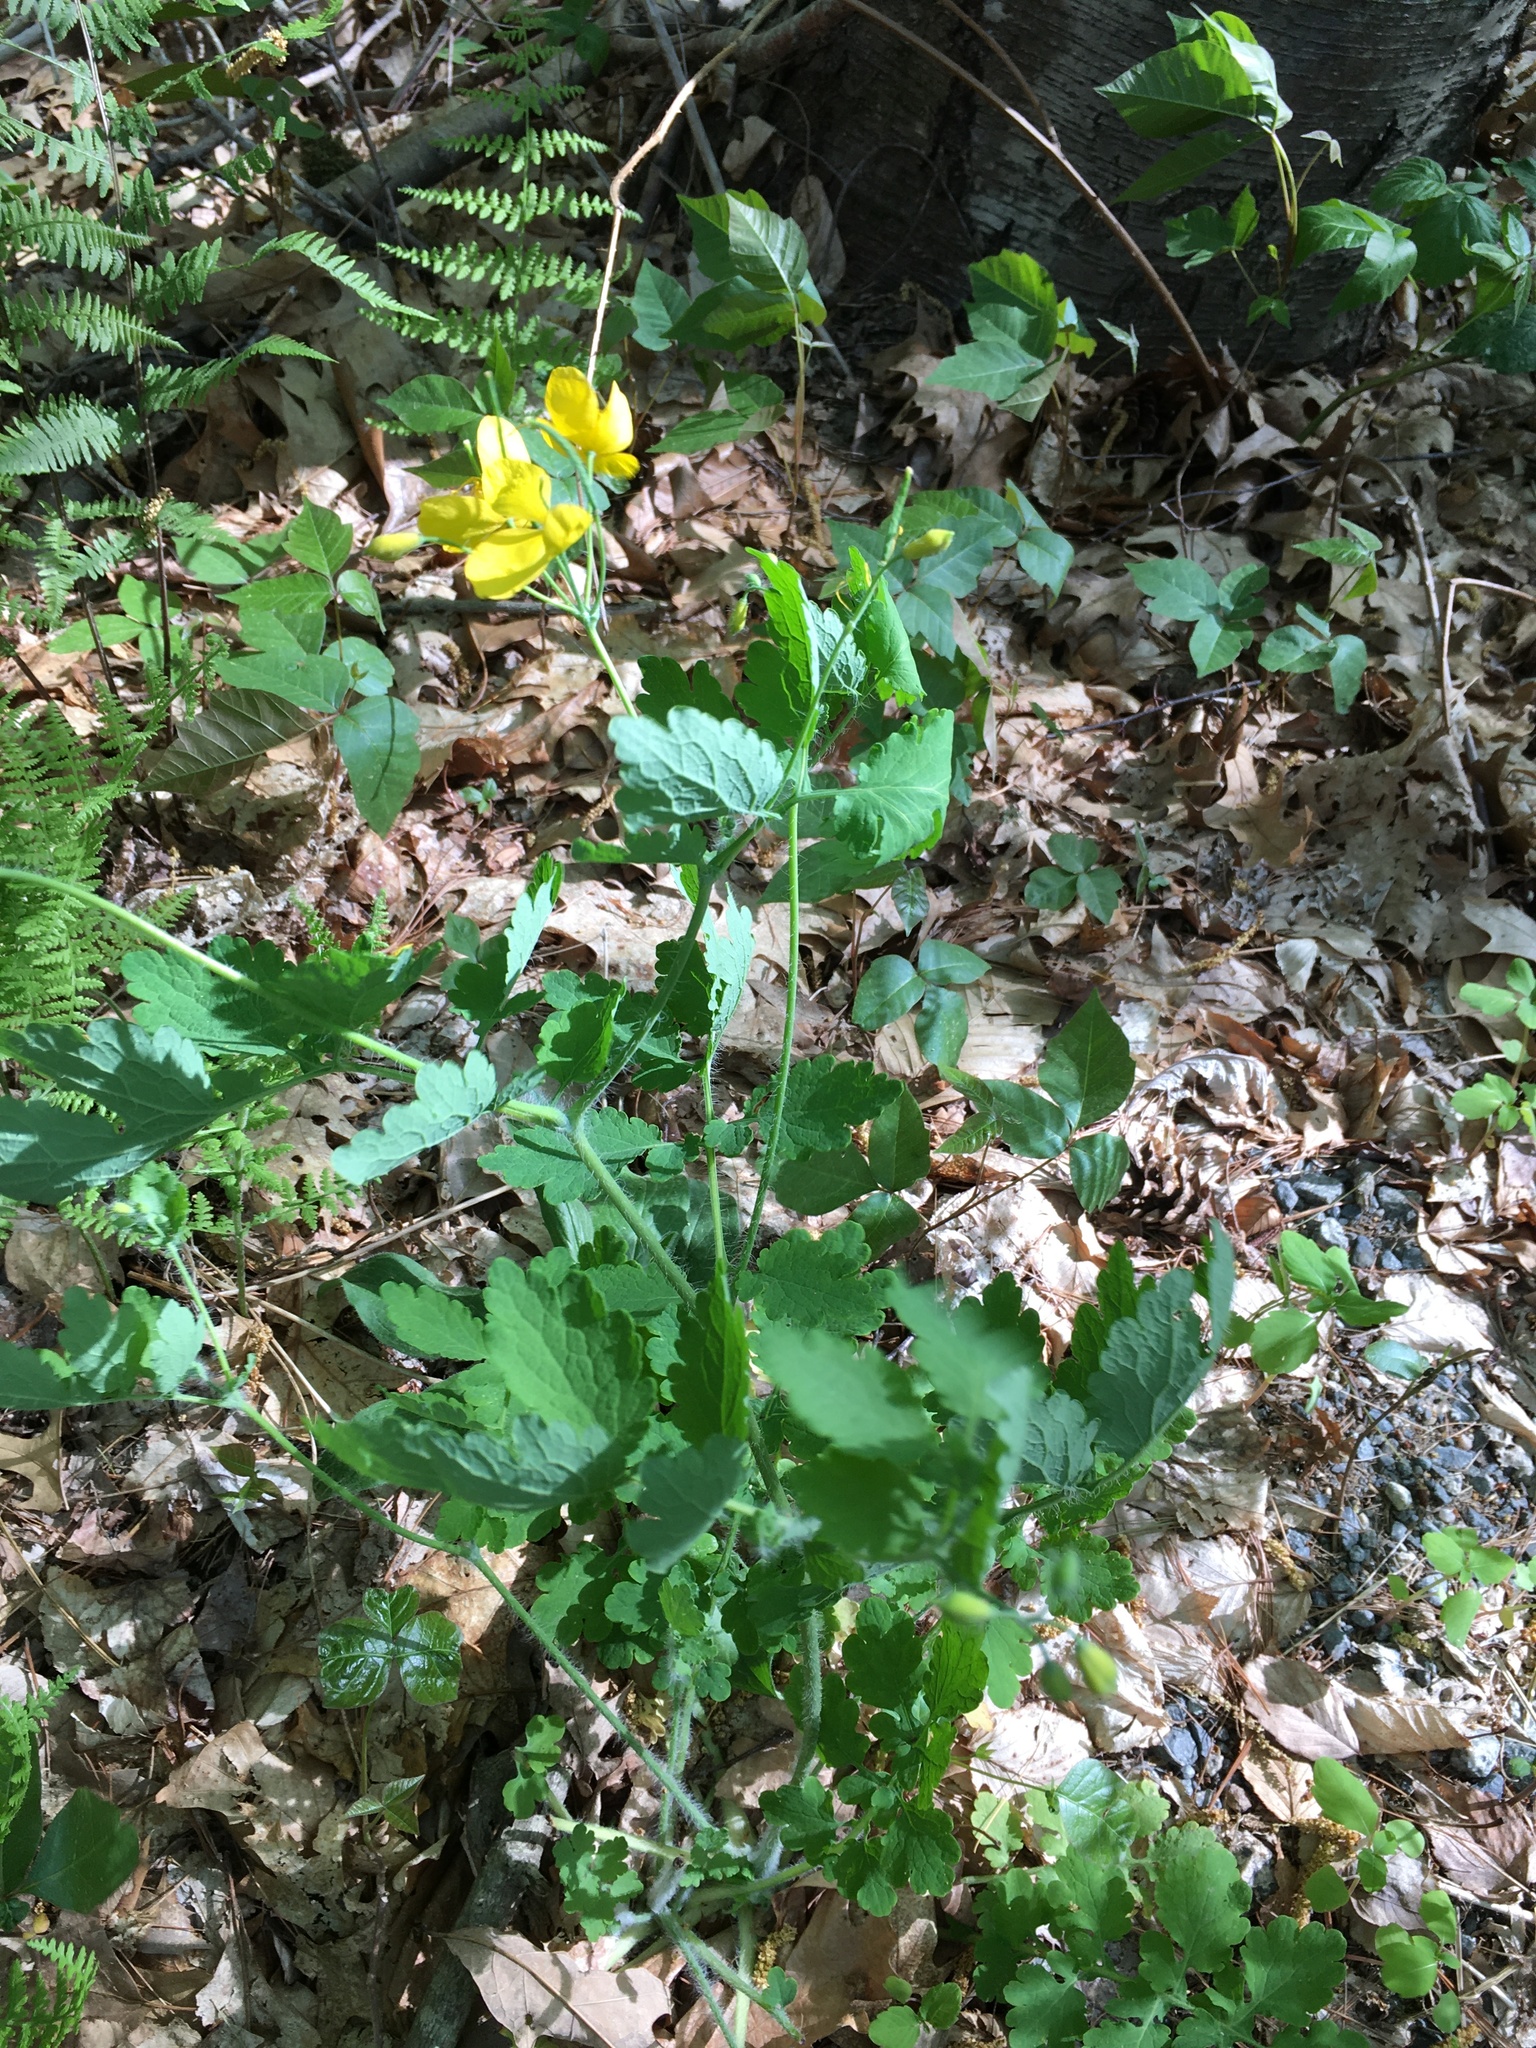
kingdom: Plantae
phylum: Tracheophyta
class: Magnoliopsida
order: Ranunculales
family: Papaveraceae
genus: Chelidonium
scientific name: Chelidonium majus
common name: Greater celandine
